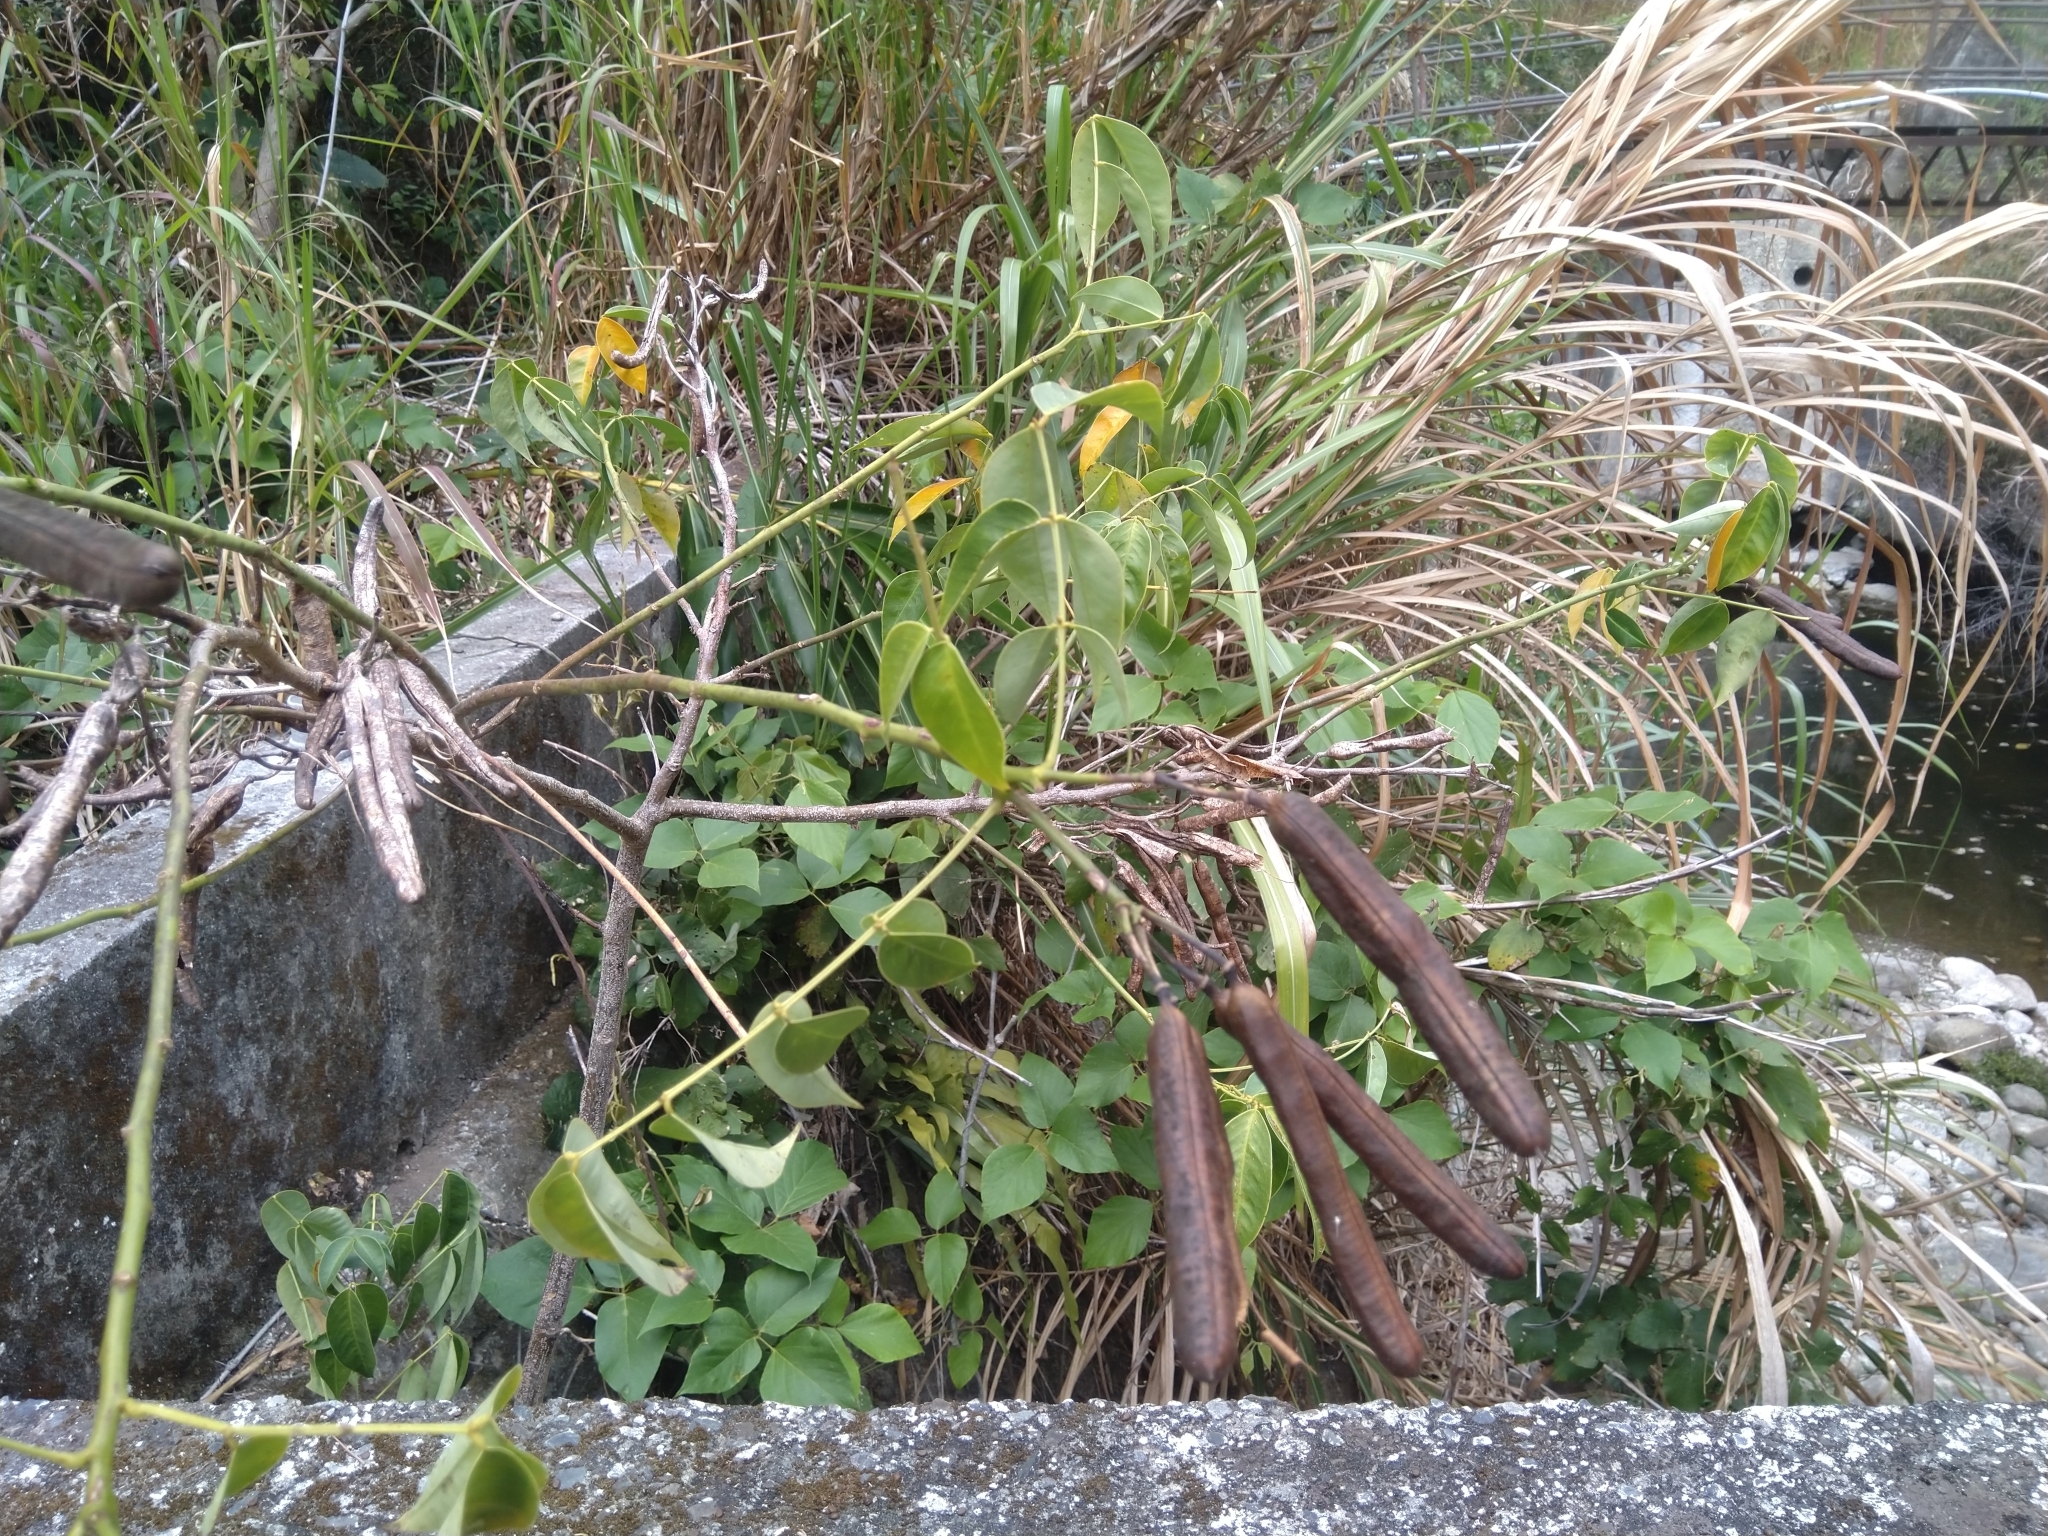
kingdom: Plantae
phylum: Tracheophyta
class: Magnoliopsida
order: Fabales
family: Fabaceae
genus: Senna
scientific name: Senna septemtrionalis
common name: Arsenic bush
